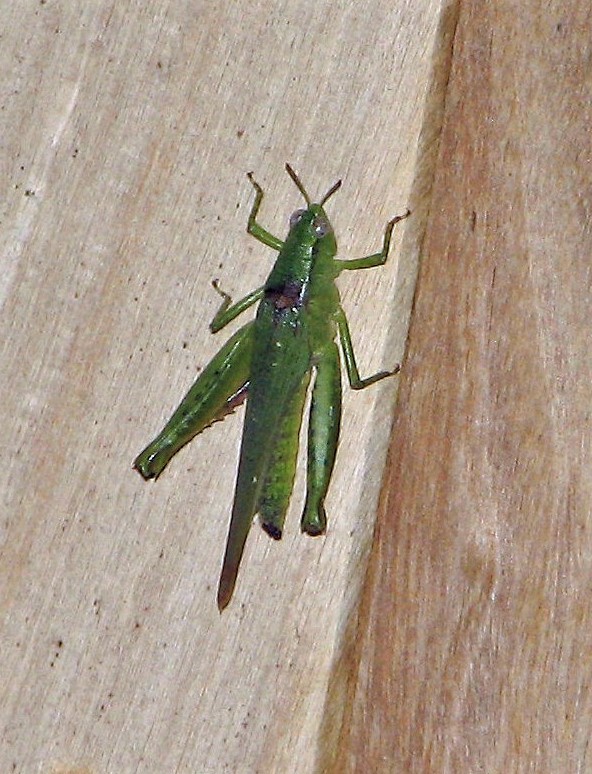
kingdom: Animalia
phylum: Arthropoda
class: Insecta
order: Orthoptera
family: Acrididae
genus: Marellia
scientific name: Marellia remipes
